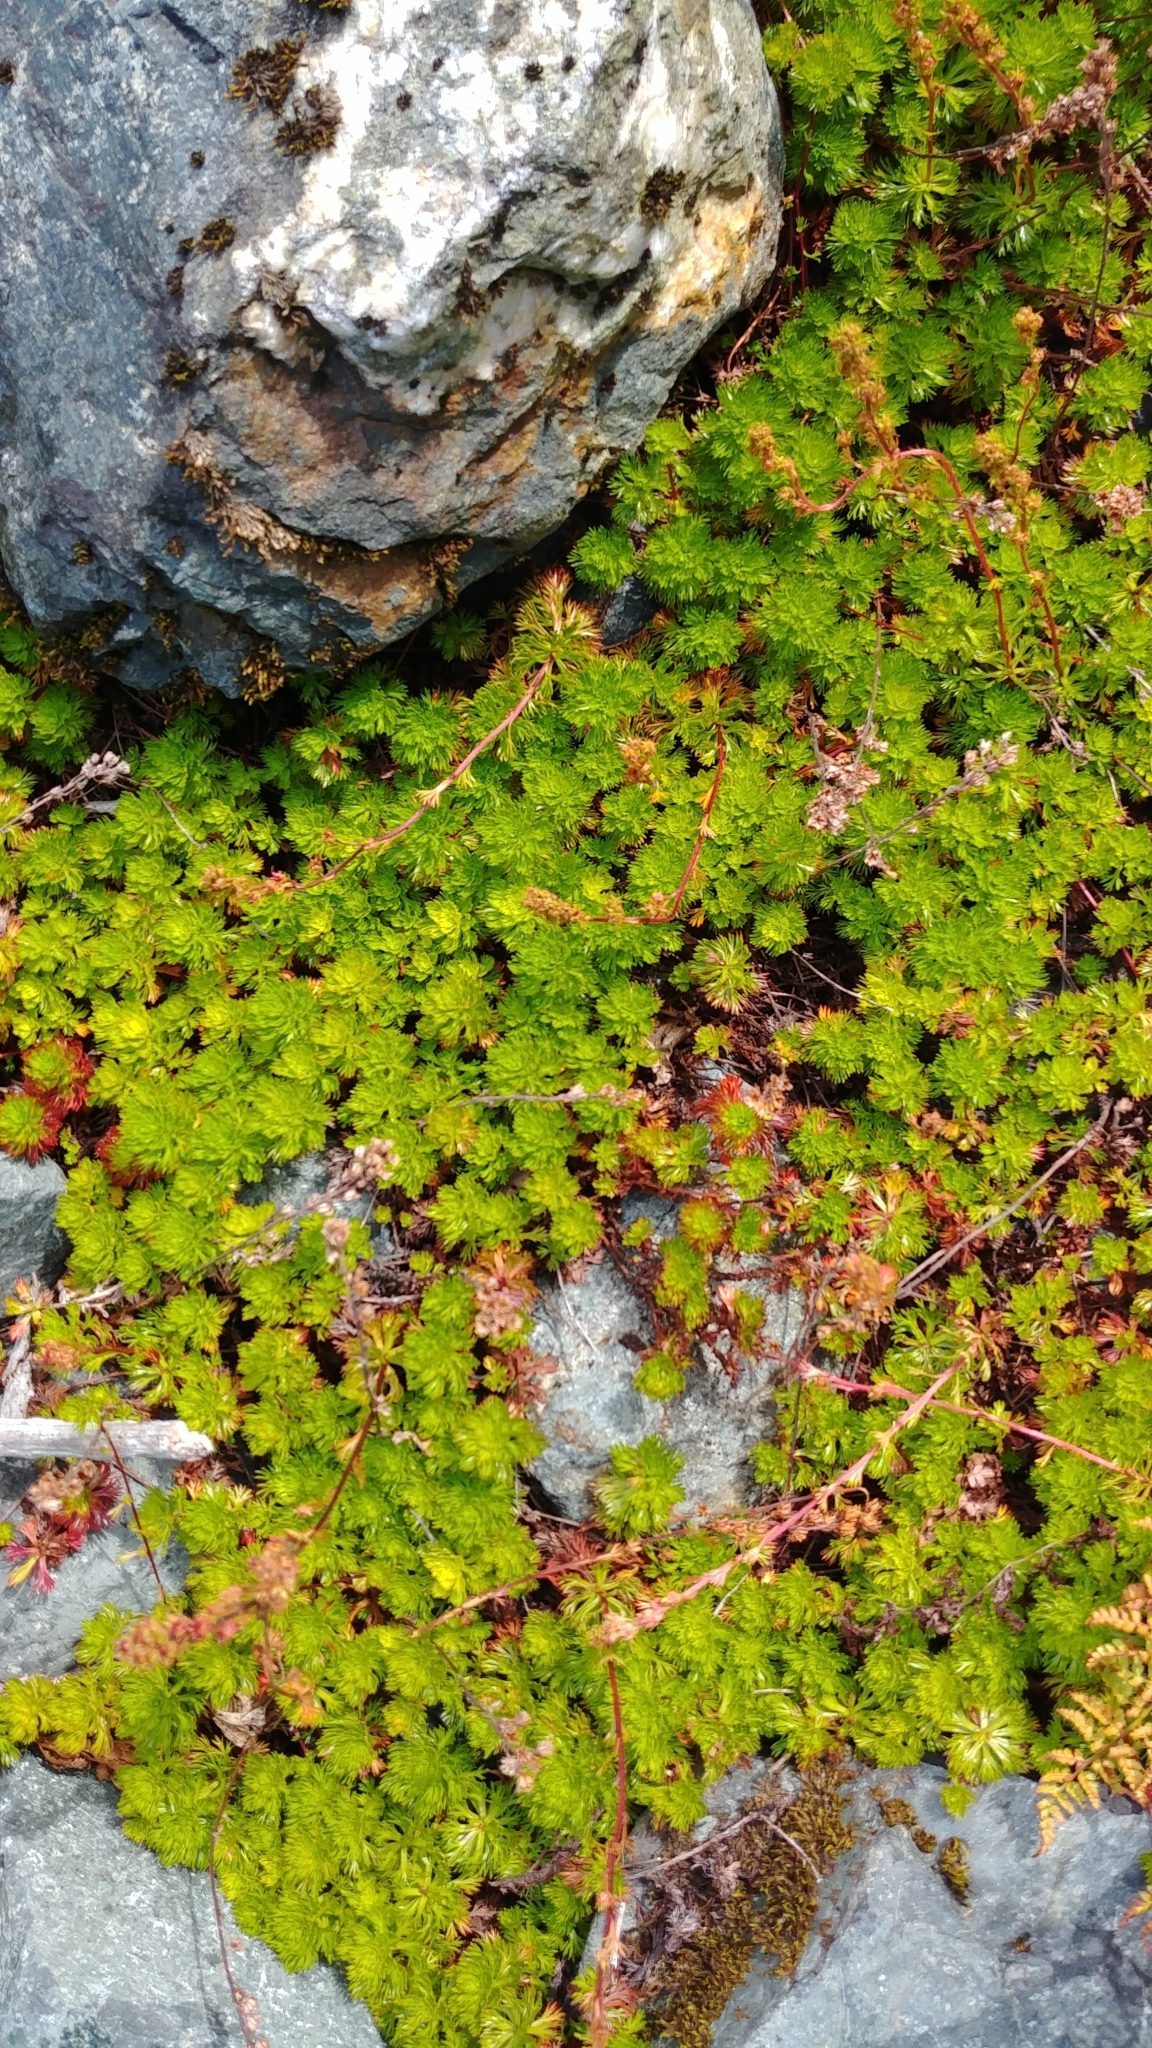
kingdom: Plantae
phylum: Tracheophyta
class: Magnoliopsida
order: Rosales
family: Rosaceae
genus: Luetkea
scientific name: Luetkea pectinata
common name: Partridgefoot
